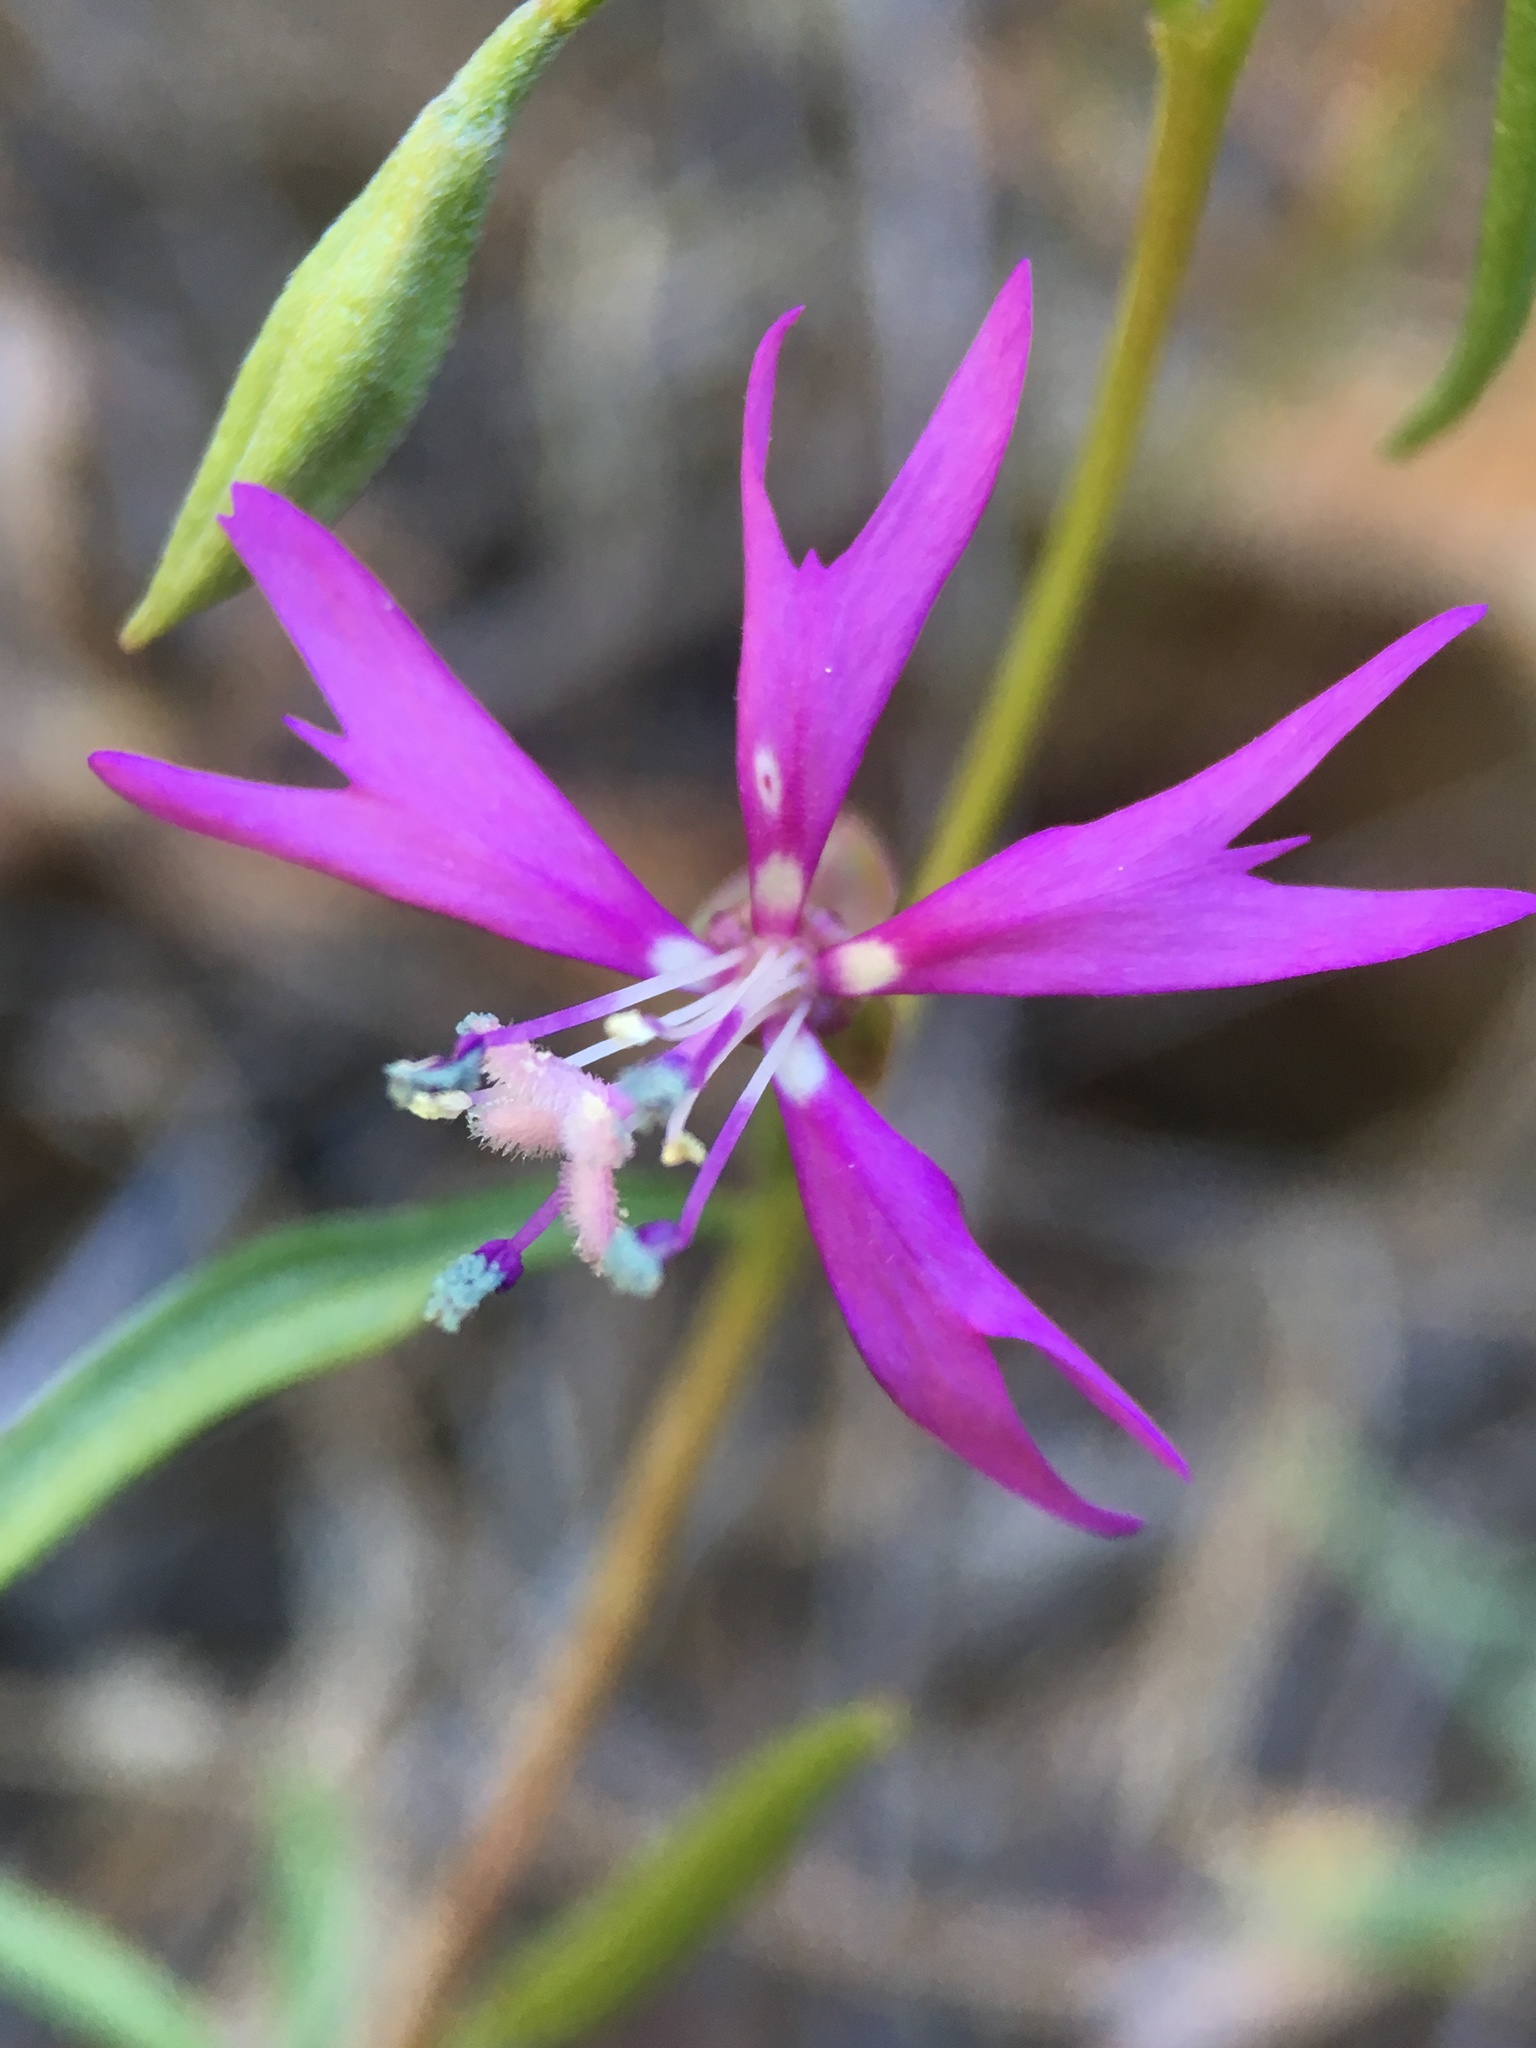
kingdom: Plantae
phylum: Tracheophyta
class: Magnoliopsida
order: Myrtales
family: Onagraceae
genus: Clarkia
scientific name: Clarkia xantiana
